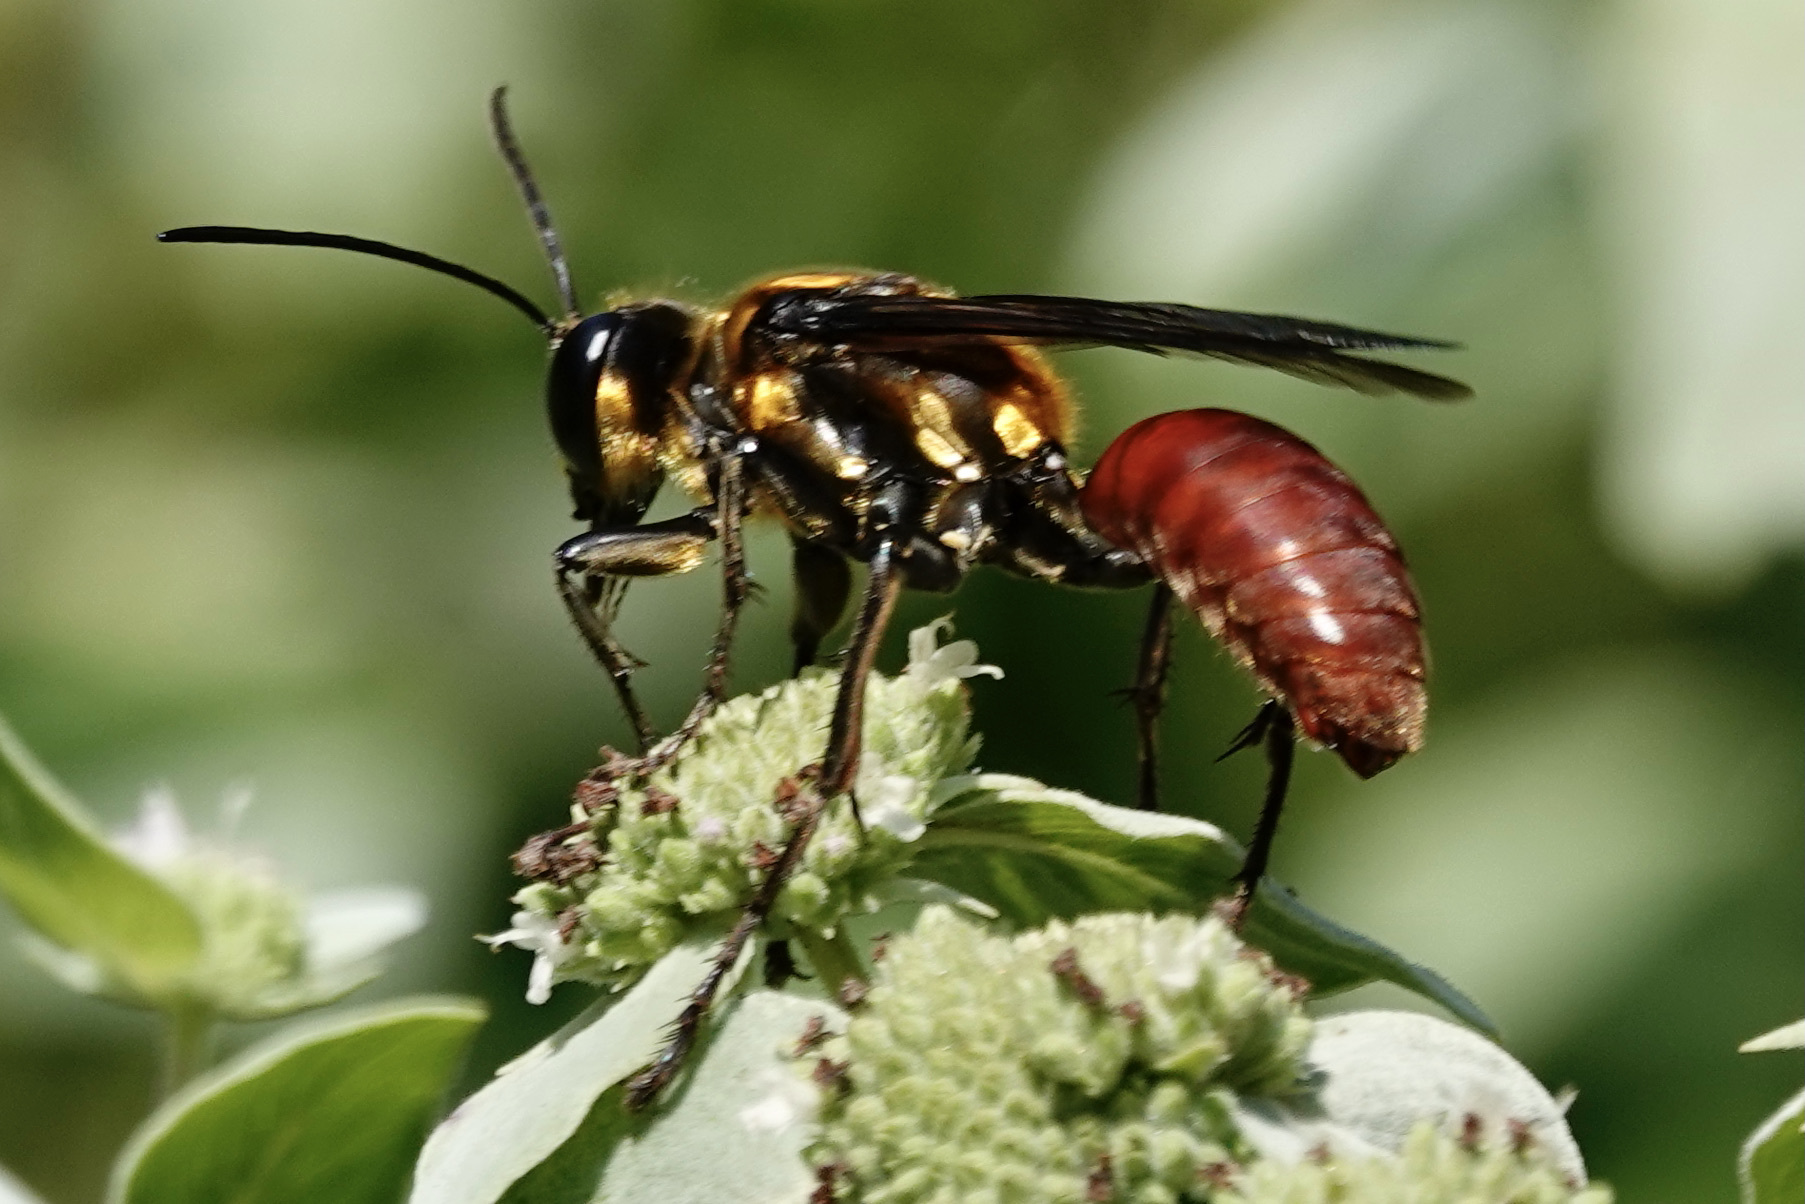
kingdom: Animalia
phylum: Arthropoda
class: Insecta
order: Hymenoptera
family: Sphecidae
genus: Sphex
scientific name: Sphex habenus
